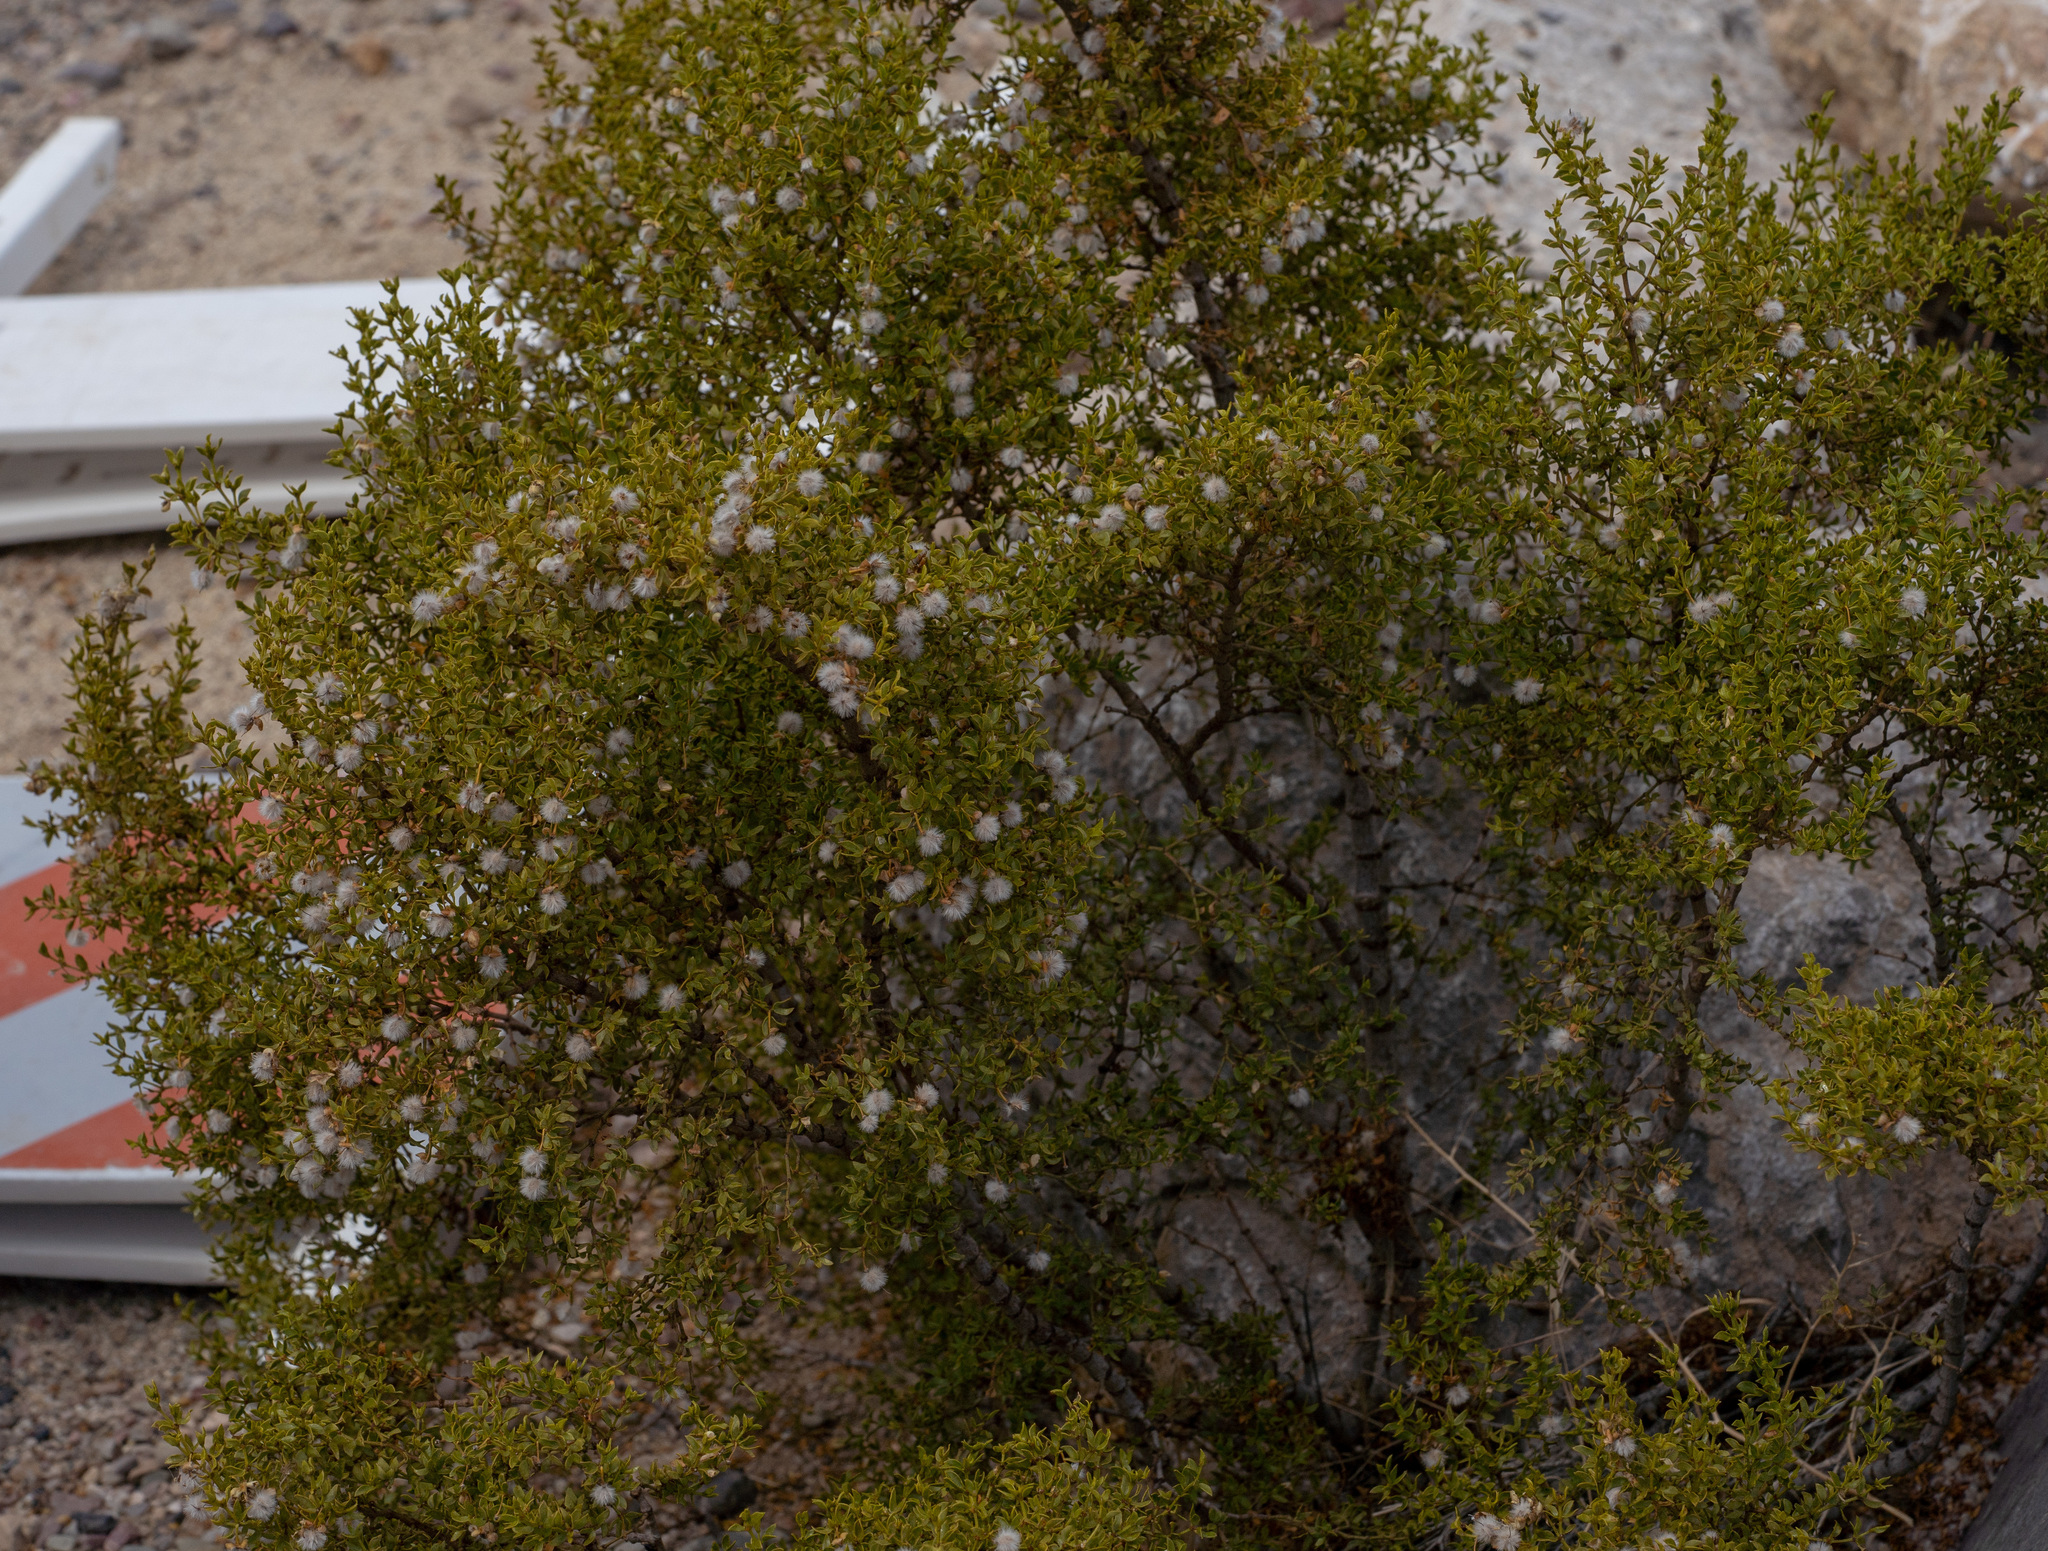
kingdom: Plantae
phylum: Tracheophyta
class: Magnoliopsida
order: Zygophyllales
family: Zygophyllaceae
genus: Larrea
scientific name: Larrea tridentata
